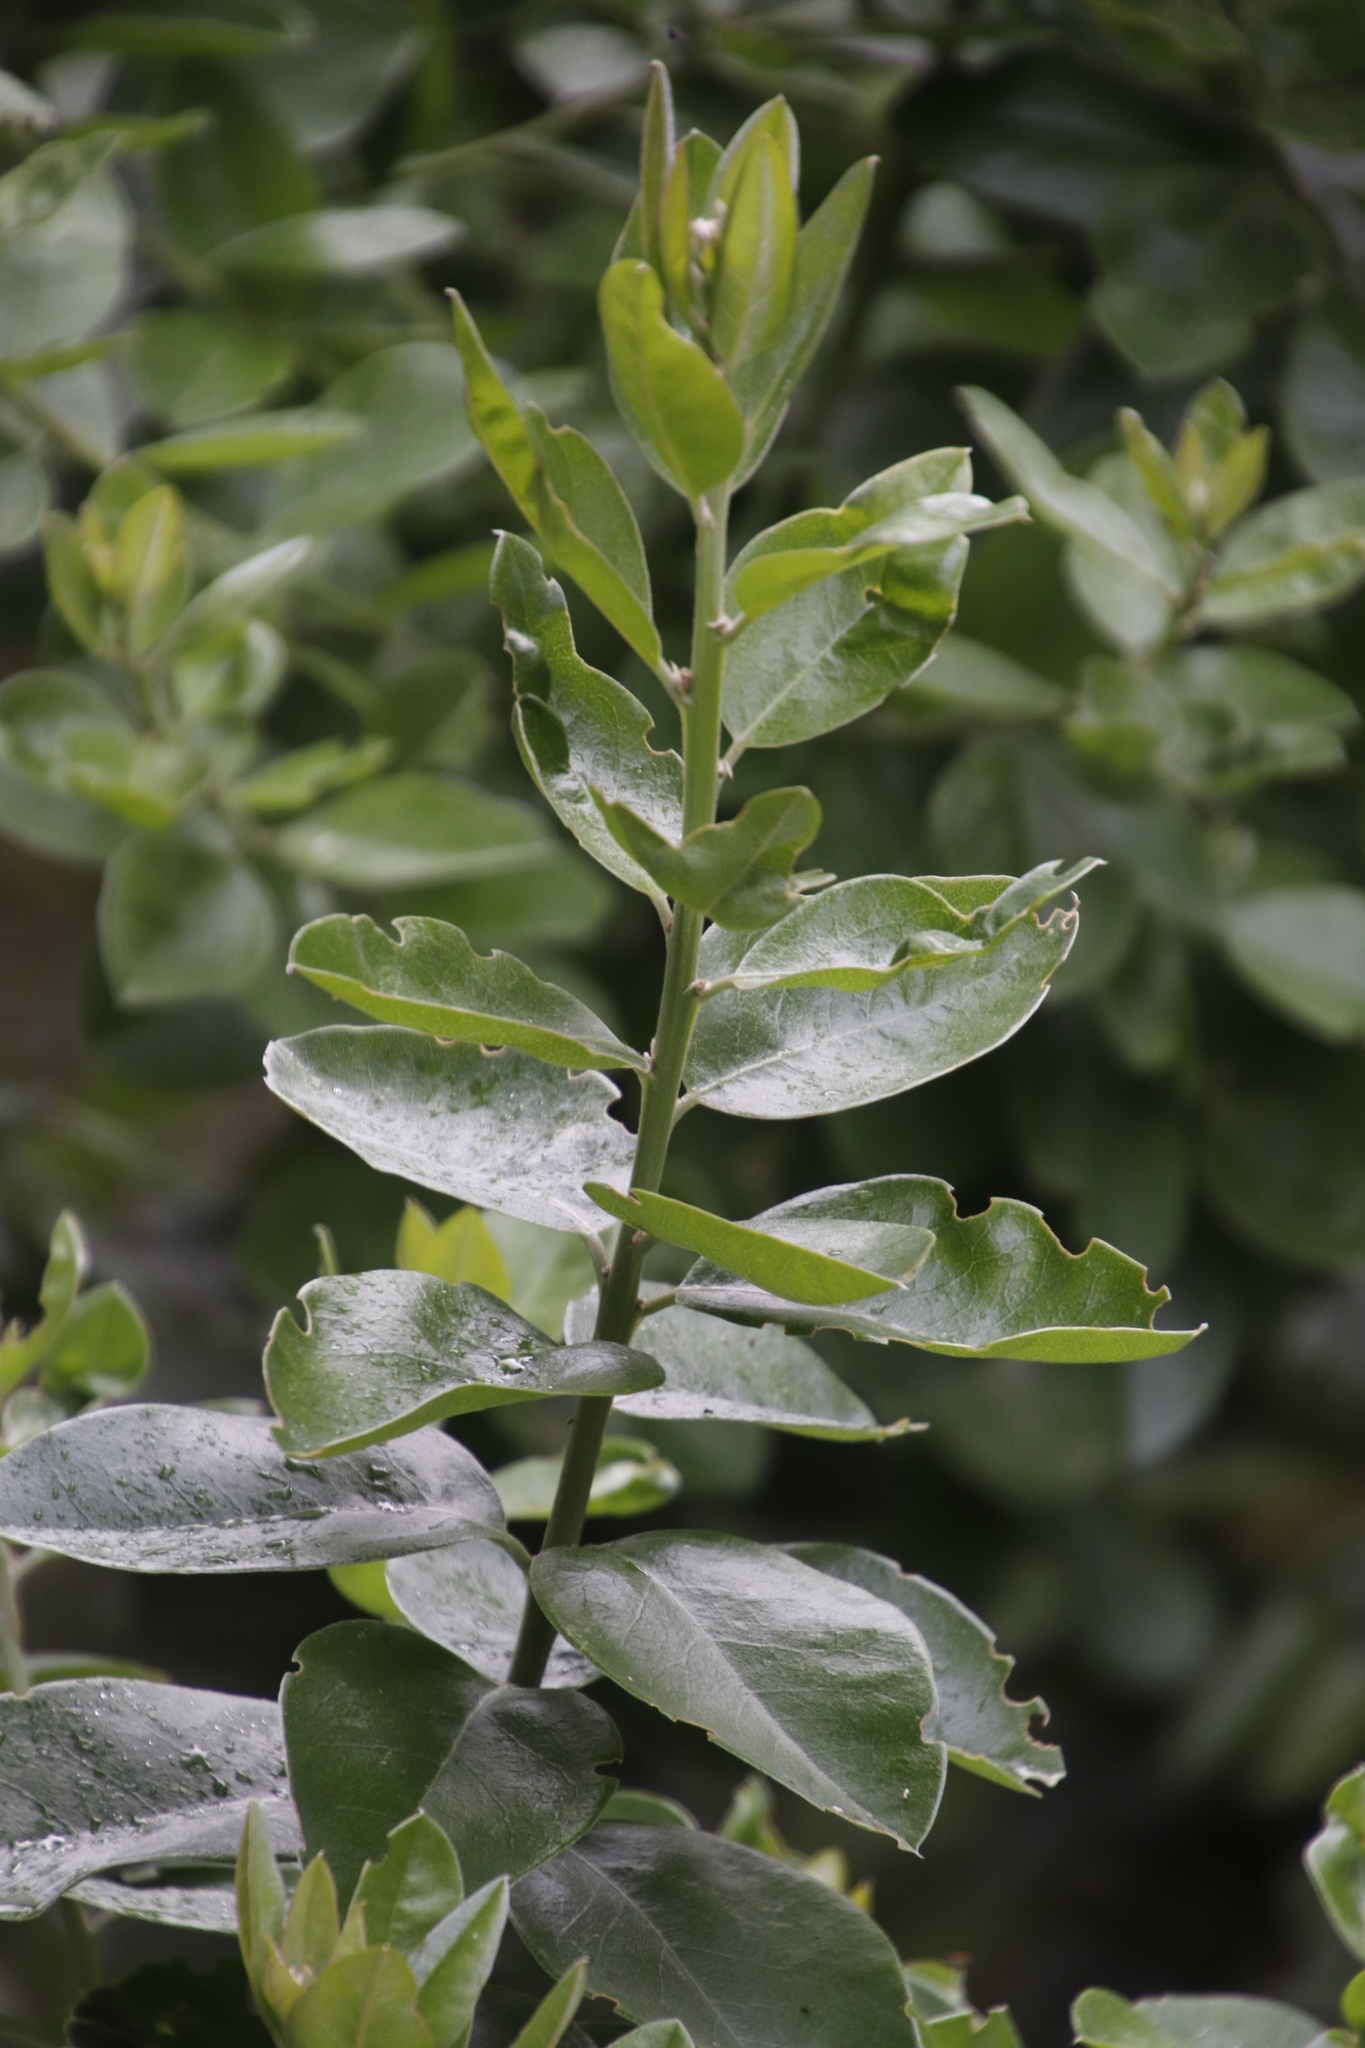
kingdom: Plantae
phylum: Tracheophyta
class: Magnoliopsida
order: Fabales
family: Fabaceae
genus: Podalyria
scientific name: Podalyria calyptrata
